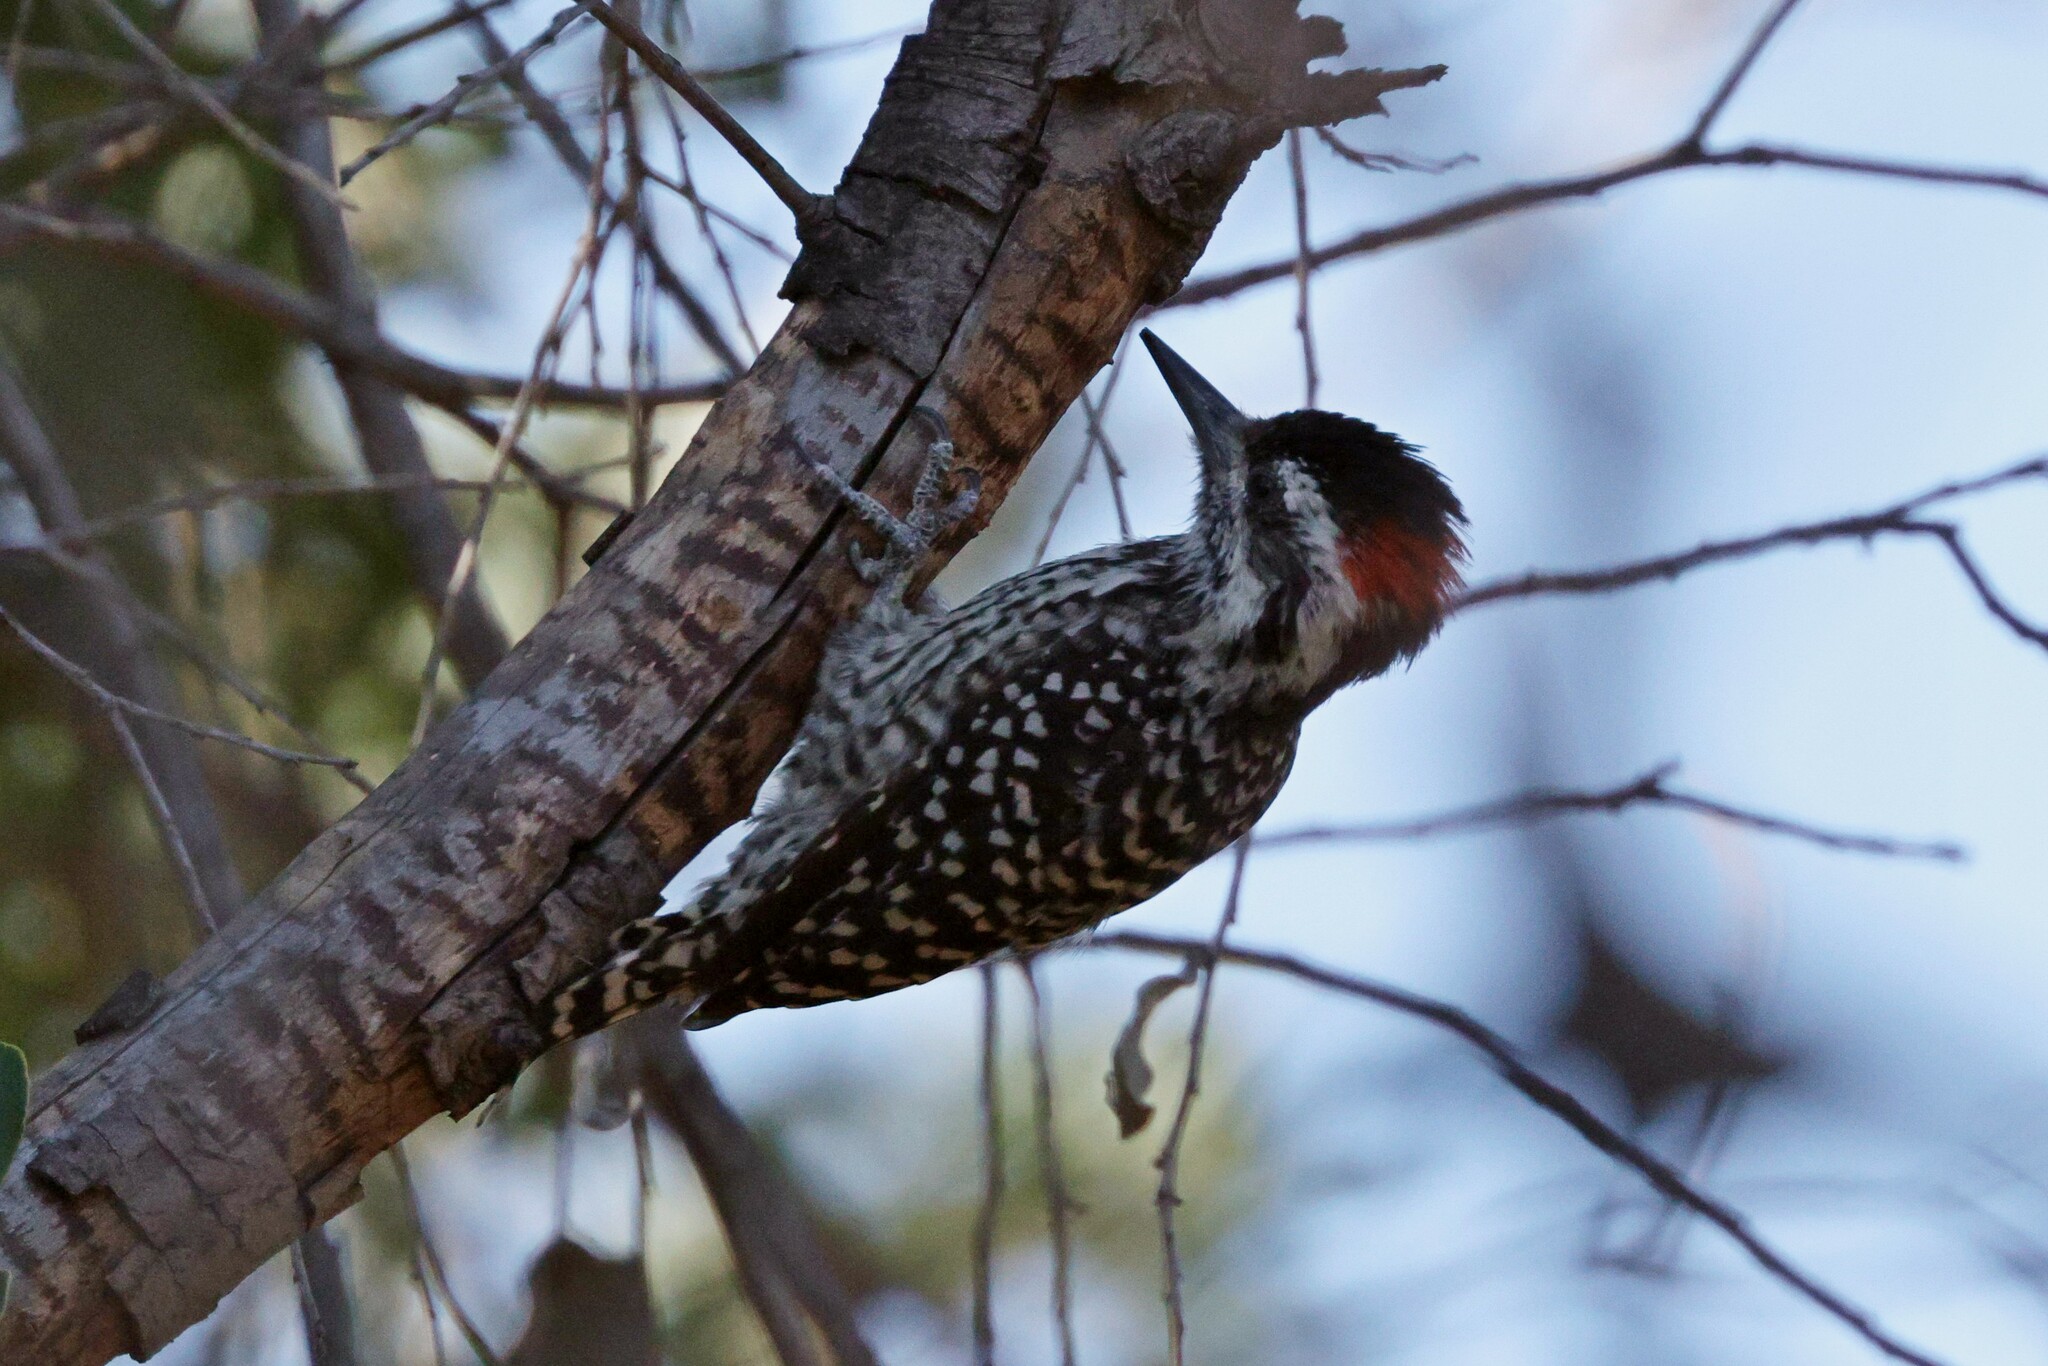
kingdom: Animalia
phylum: Chordata
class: Aves
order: Piciformes
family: Picidae
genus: Veniliornis
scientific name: Veniliornis lignarius
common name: Striped woodpecker
